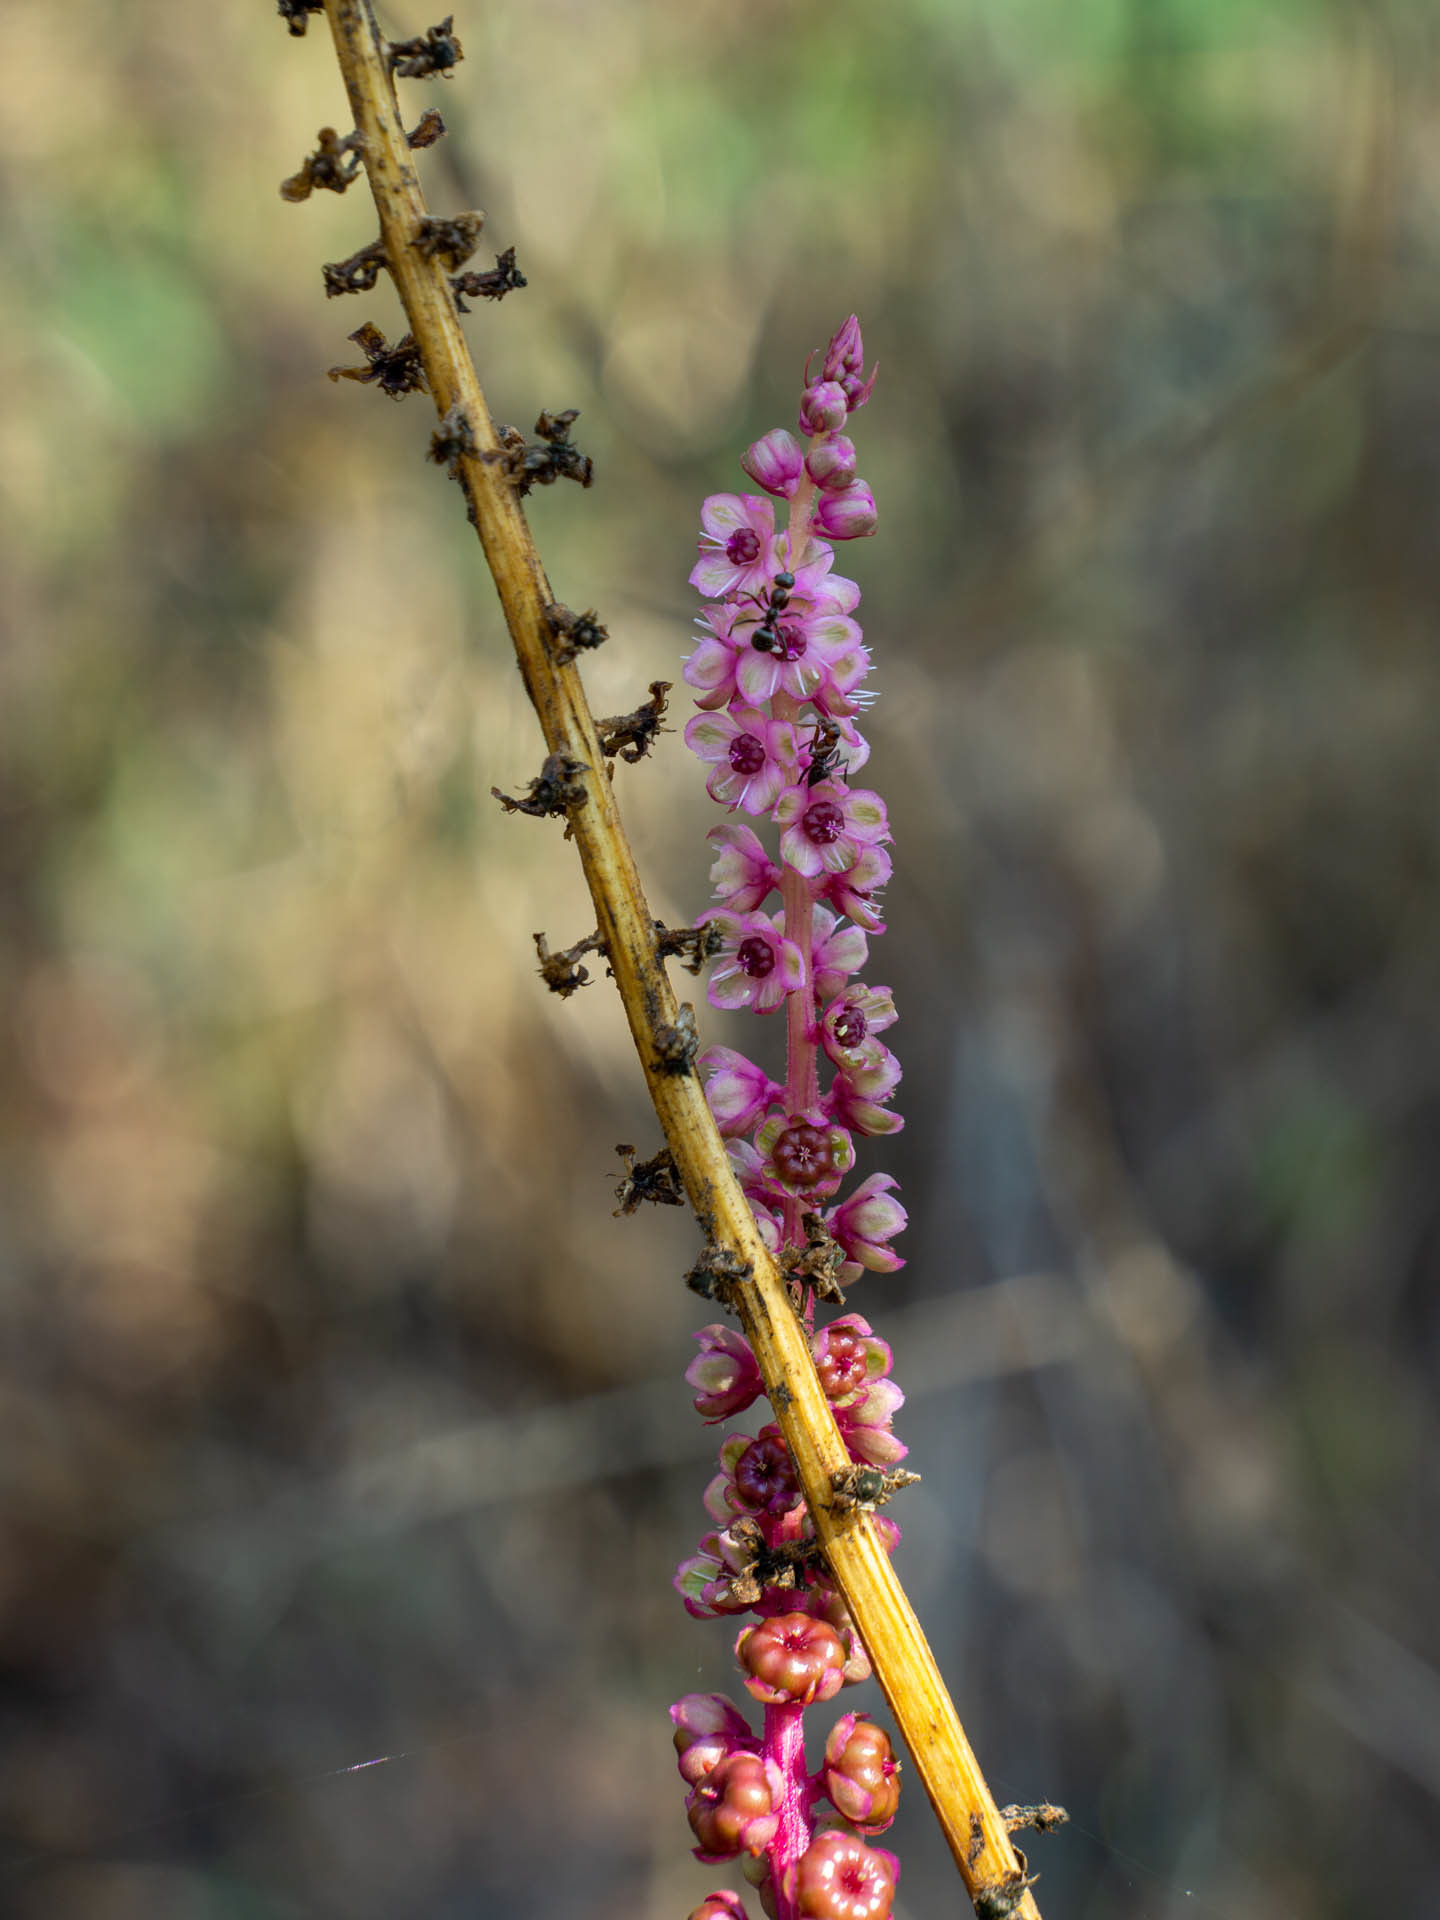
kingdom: Plantae
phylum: Tracheophyta
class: Magnoliopsida
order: Caryophyllales
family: Phytolaccaceae
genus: Phytolacca
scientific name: Phytolacca icosandra
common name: Button pokeweed
